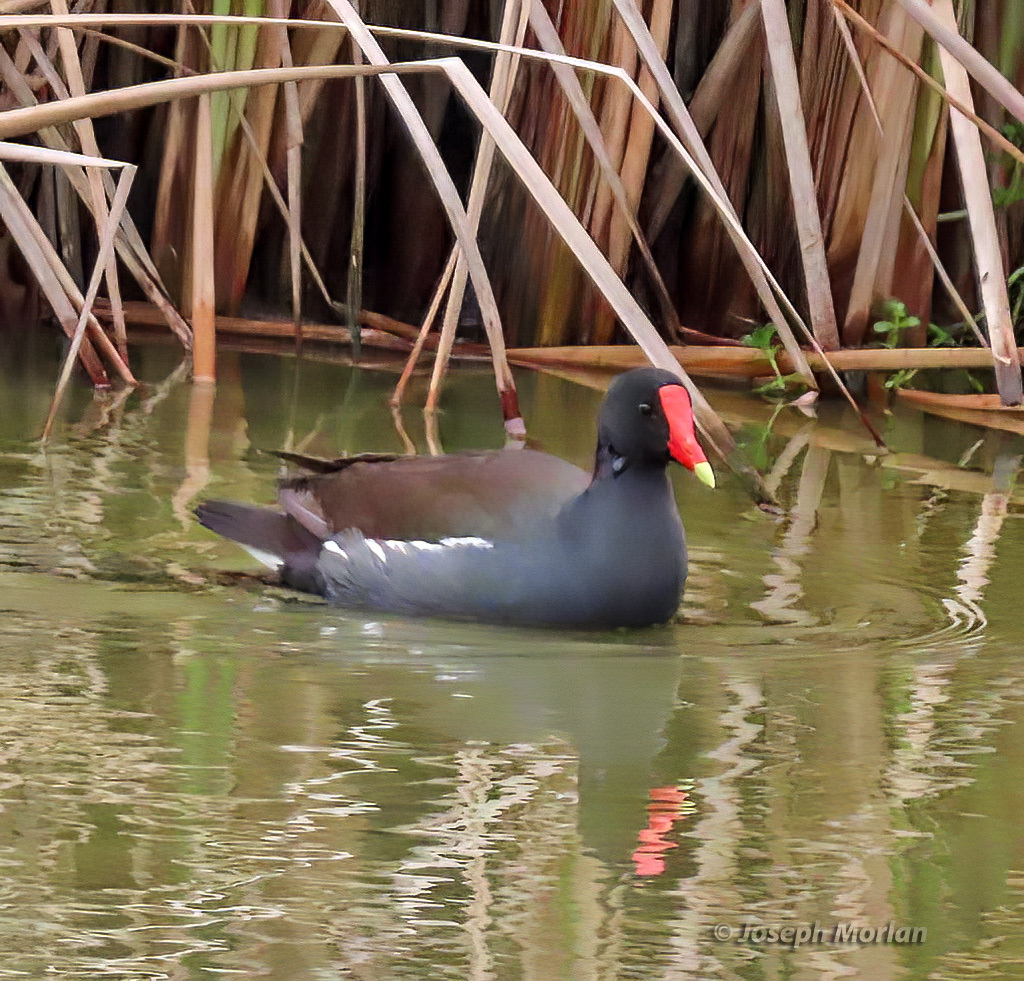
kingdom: Animalia
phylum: Chordata
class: Aves
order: Gruiformes
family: Rallidae
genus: Gallinula
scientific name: Gallinula chloropus
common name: Common moorhen
